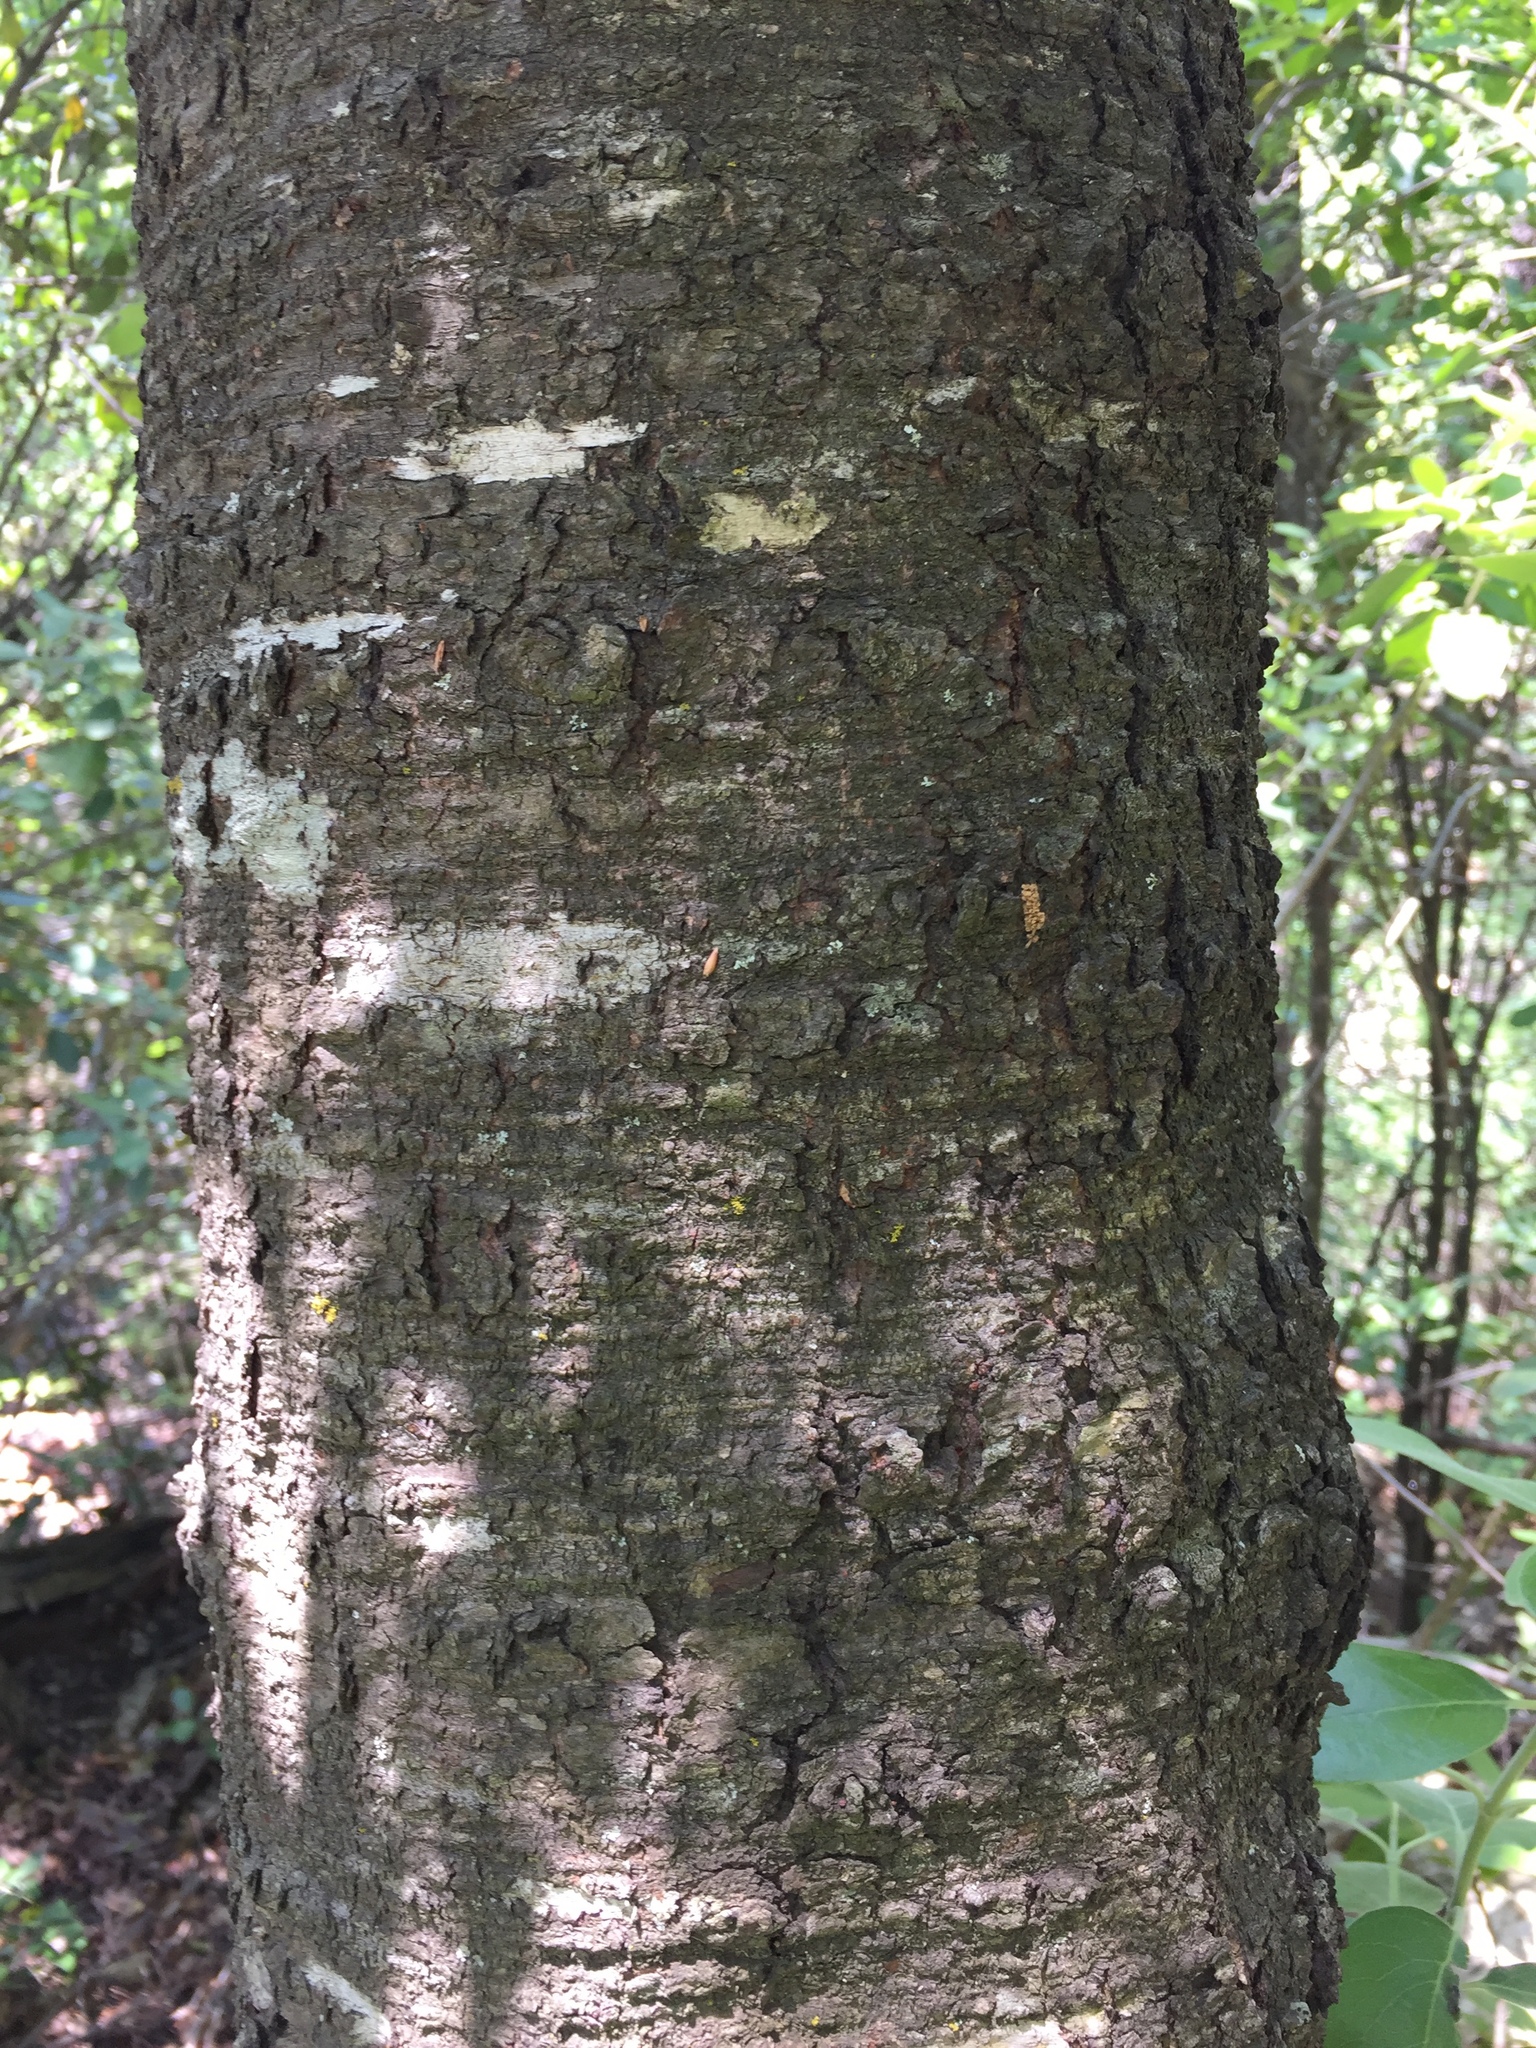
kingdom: Plantae
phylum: Tracheophyta
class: Magnoliopsida
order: Rosales
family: Rosaceae
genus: Prunus
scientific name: Prunus serotina
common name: Black cherry
